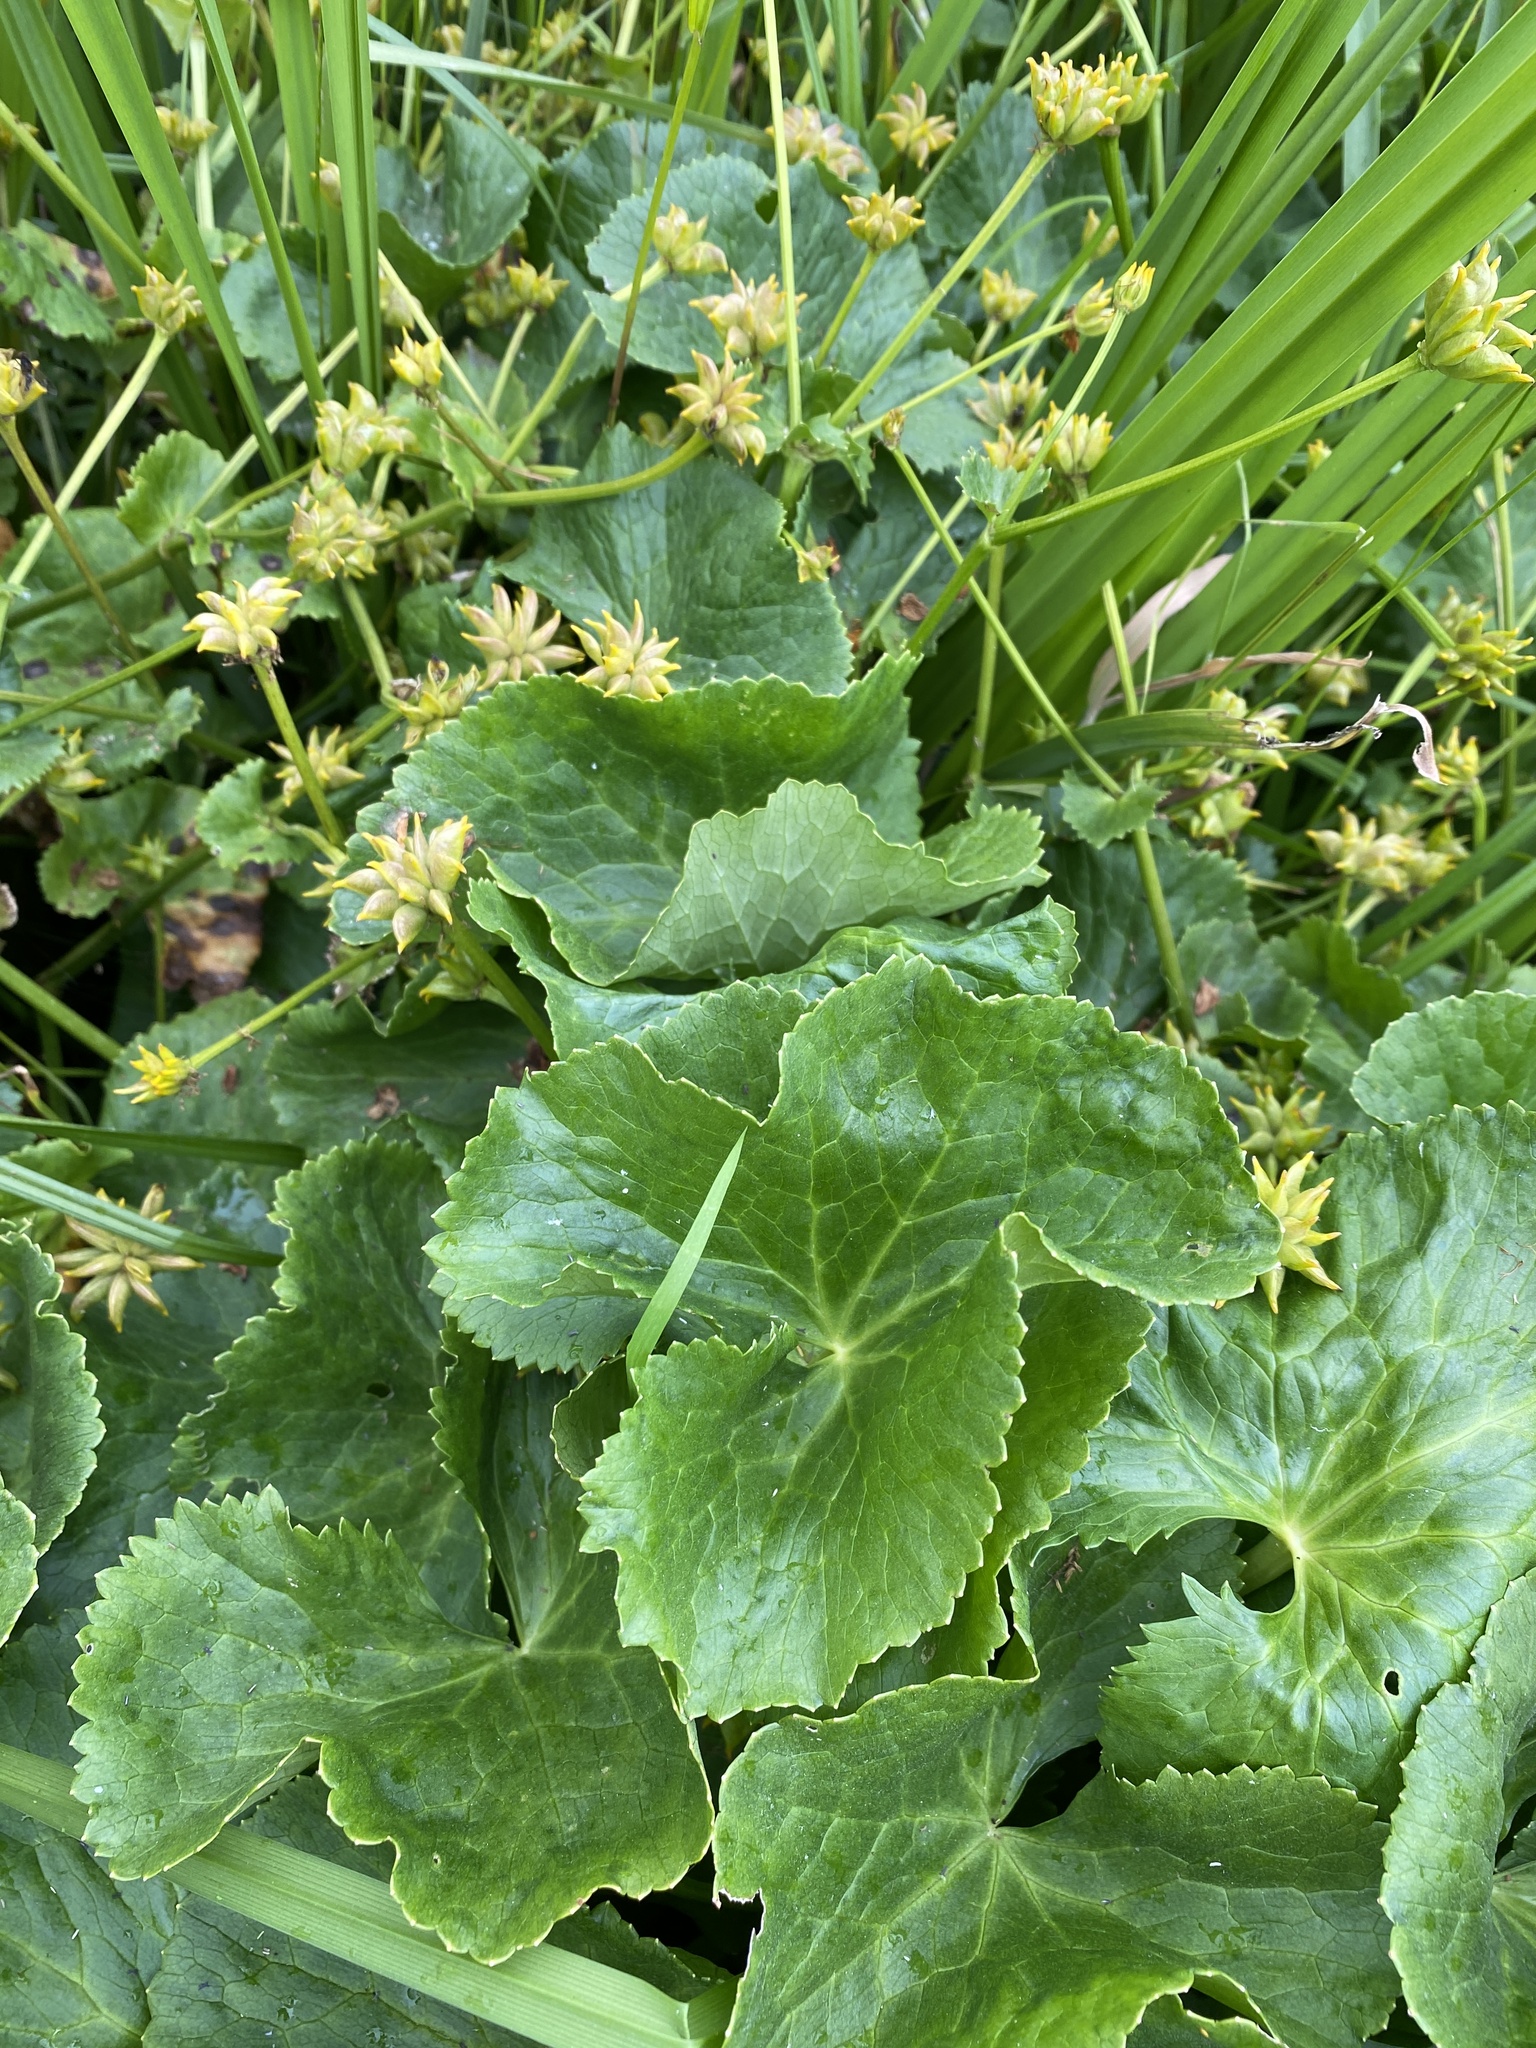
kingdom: Plantae
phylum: Tracheophyta
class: Magnoliopsida
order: Ranunculales
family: Ranunculaceae
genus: Caltha
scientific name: Caltha palustris
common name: Marsh marigold
